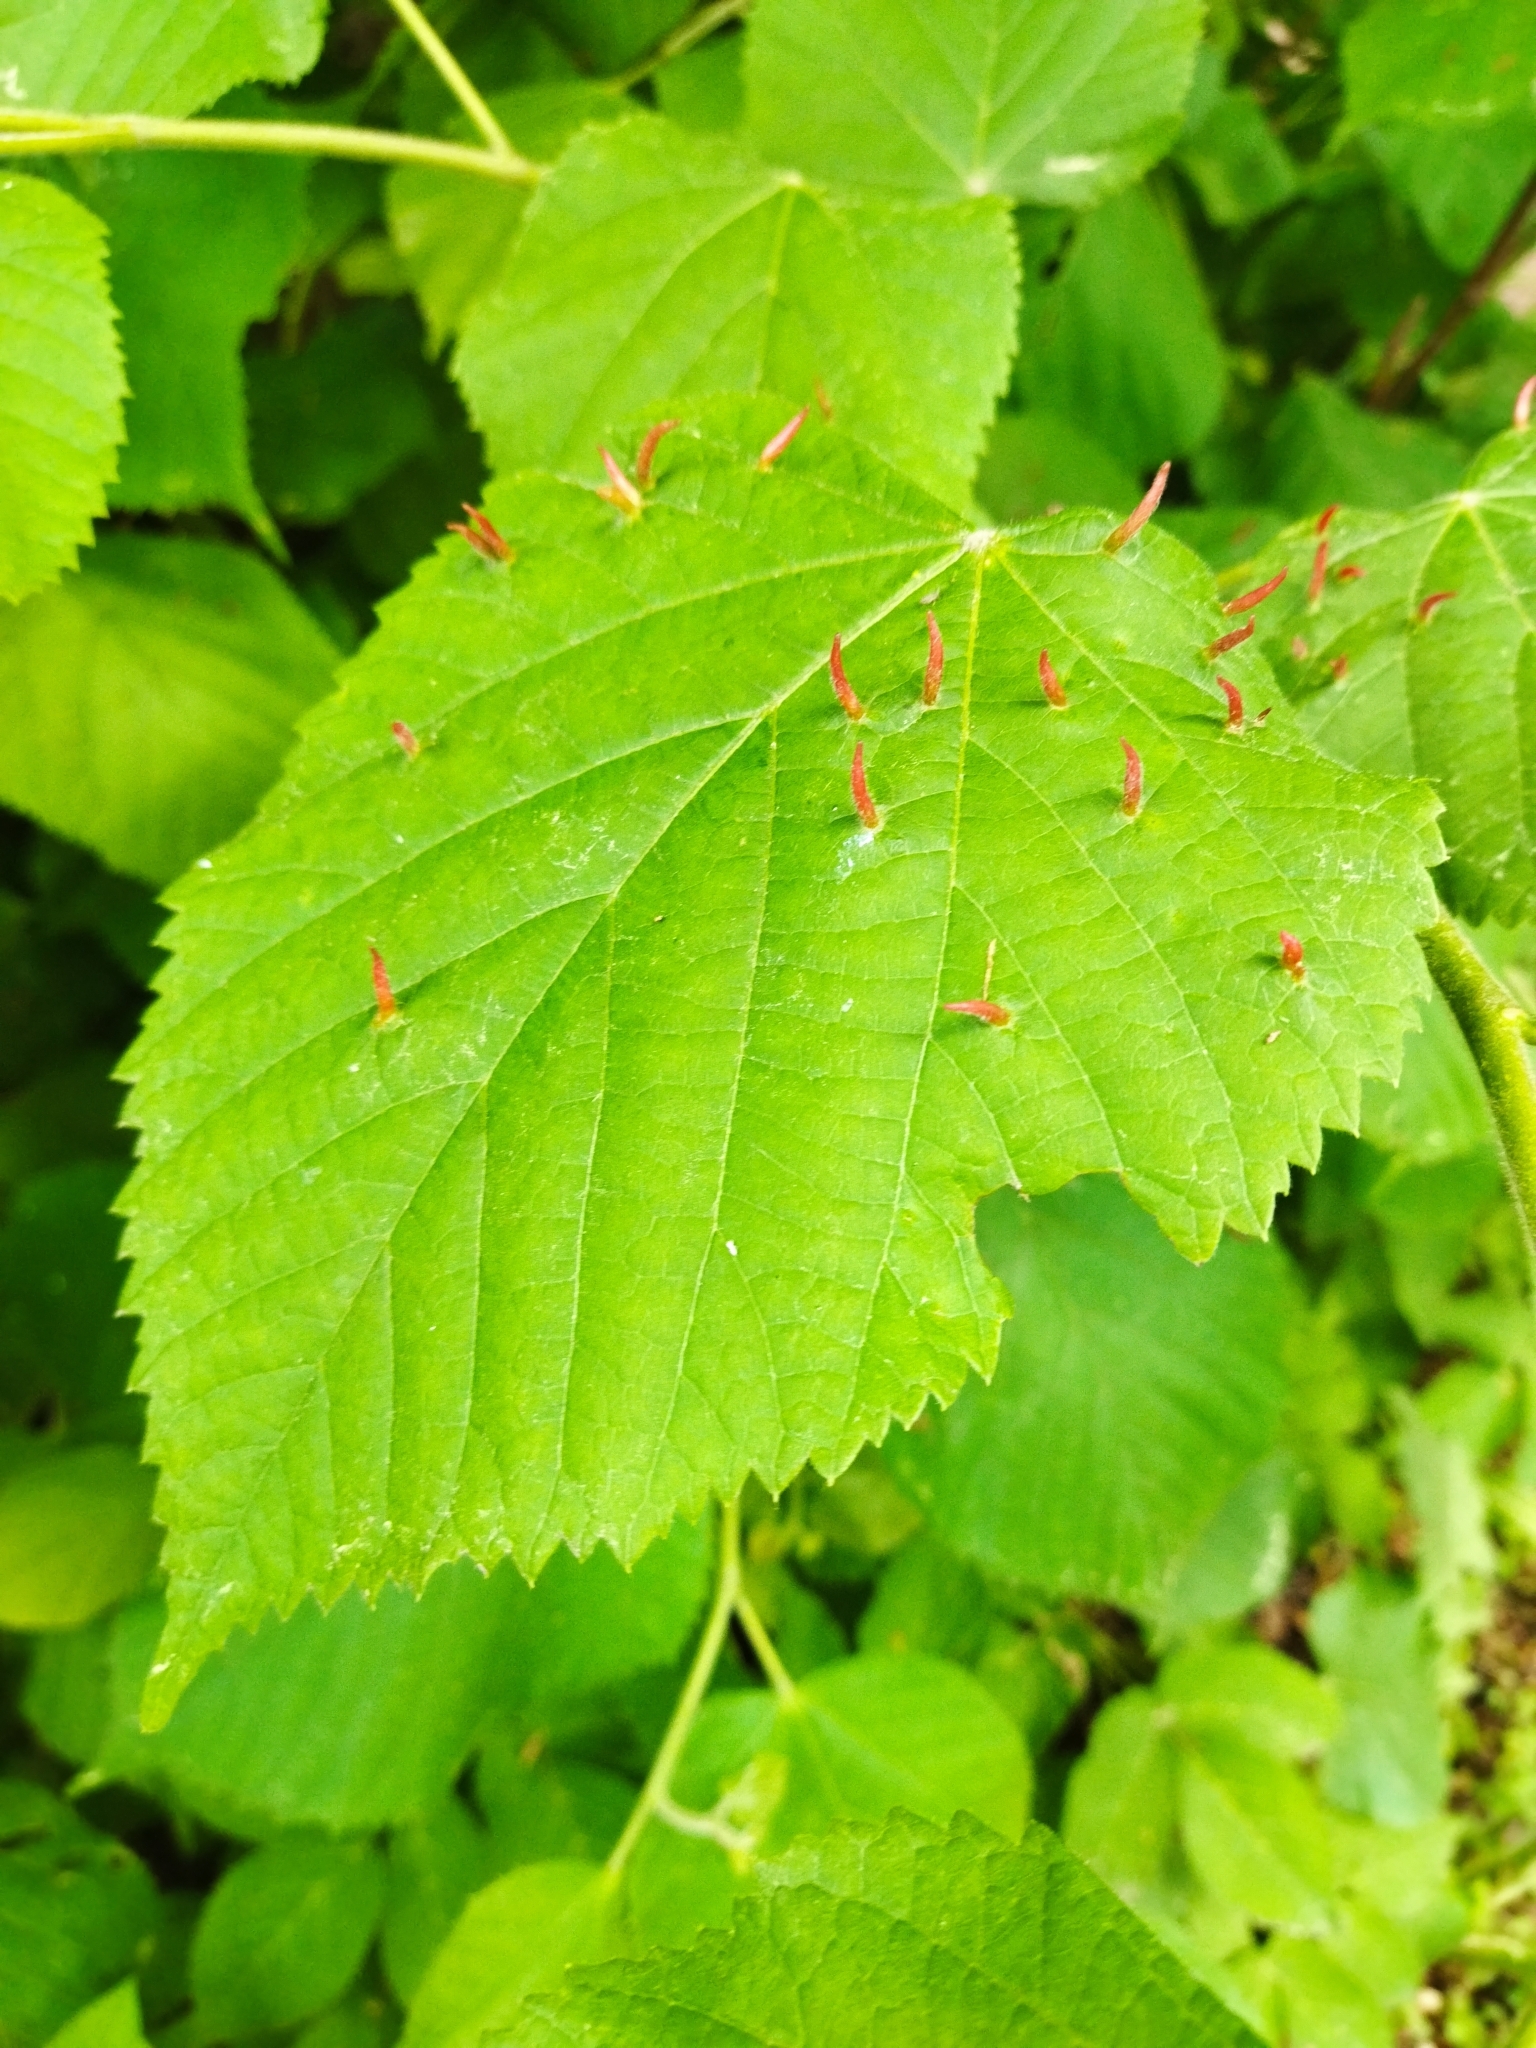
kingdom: Animalia
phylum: Arthropoda
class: Arachnida
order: Trombidiformes
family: Eriophyidae
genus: Eriophyes
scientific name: Eriophyes tiliae
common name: Red nail gall mite
